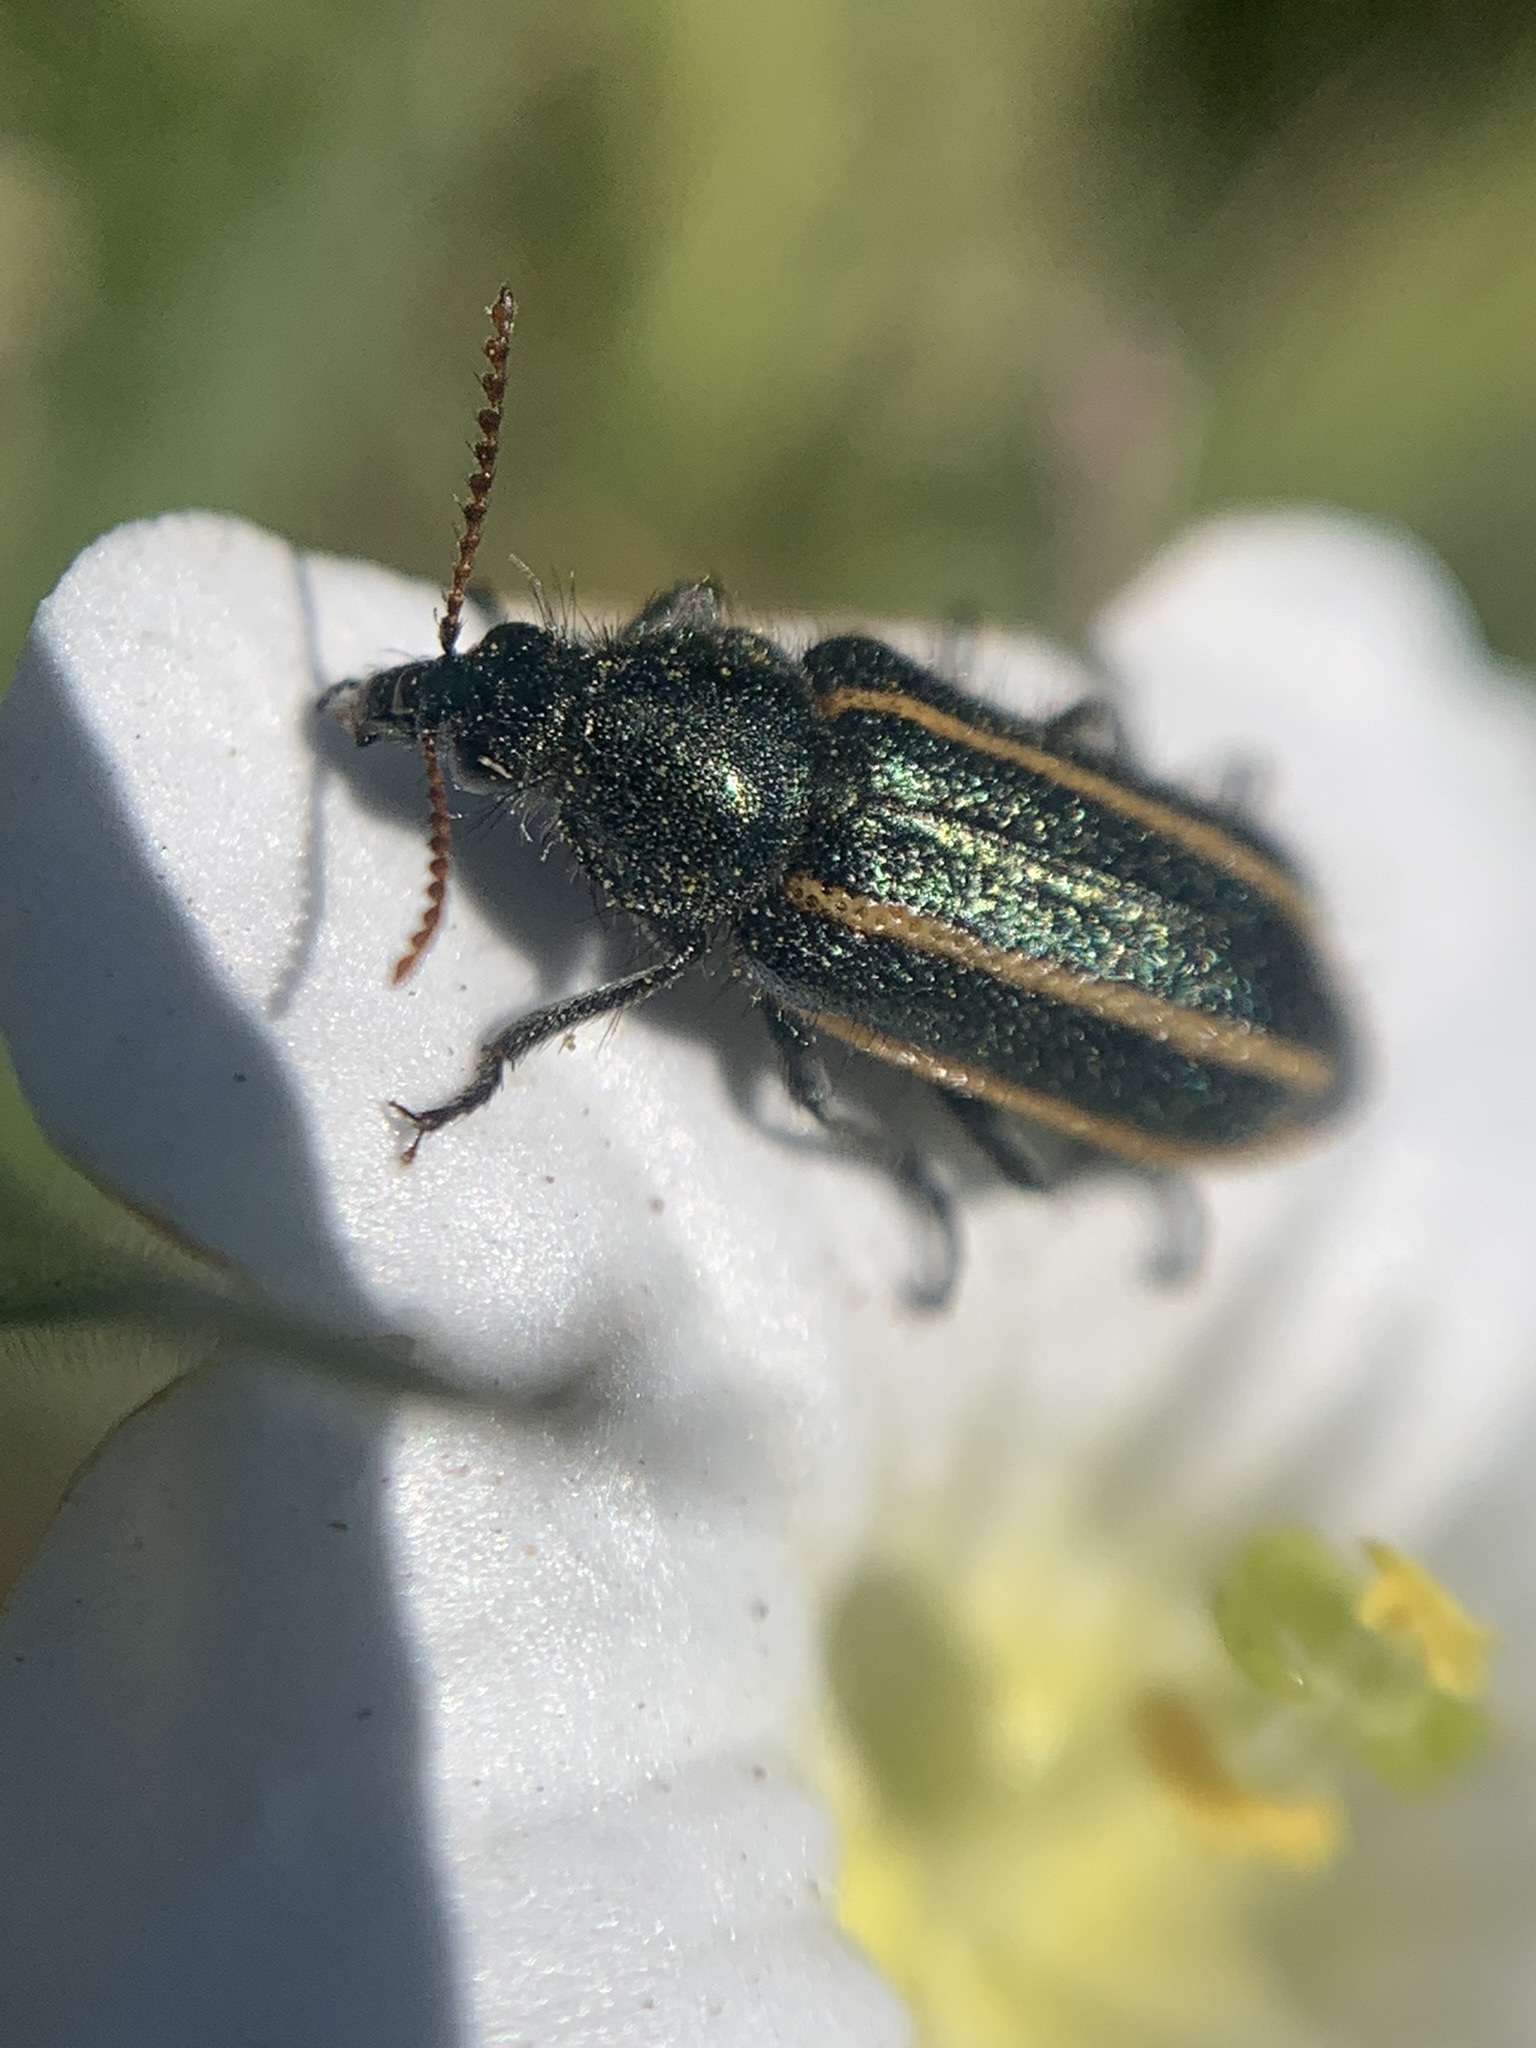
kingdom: Animalia
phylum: Arthropoda
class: Insecta
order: Coleoptera
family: Melyridae
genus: Astylus
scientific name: Astylus
